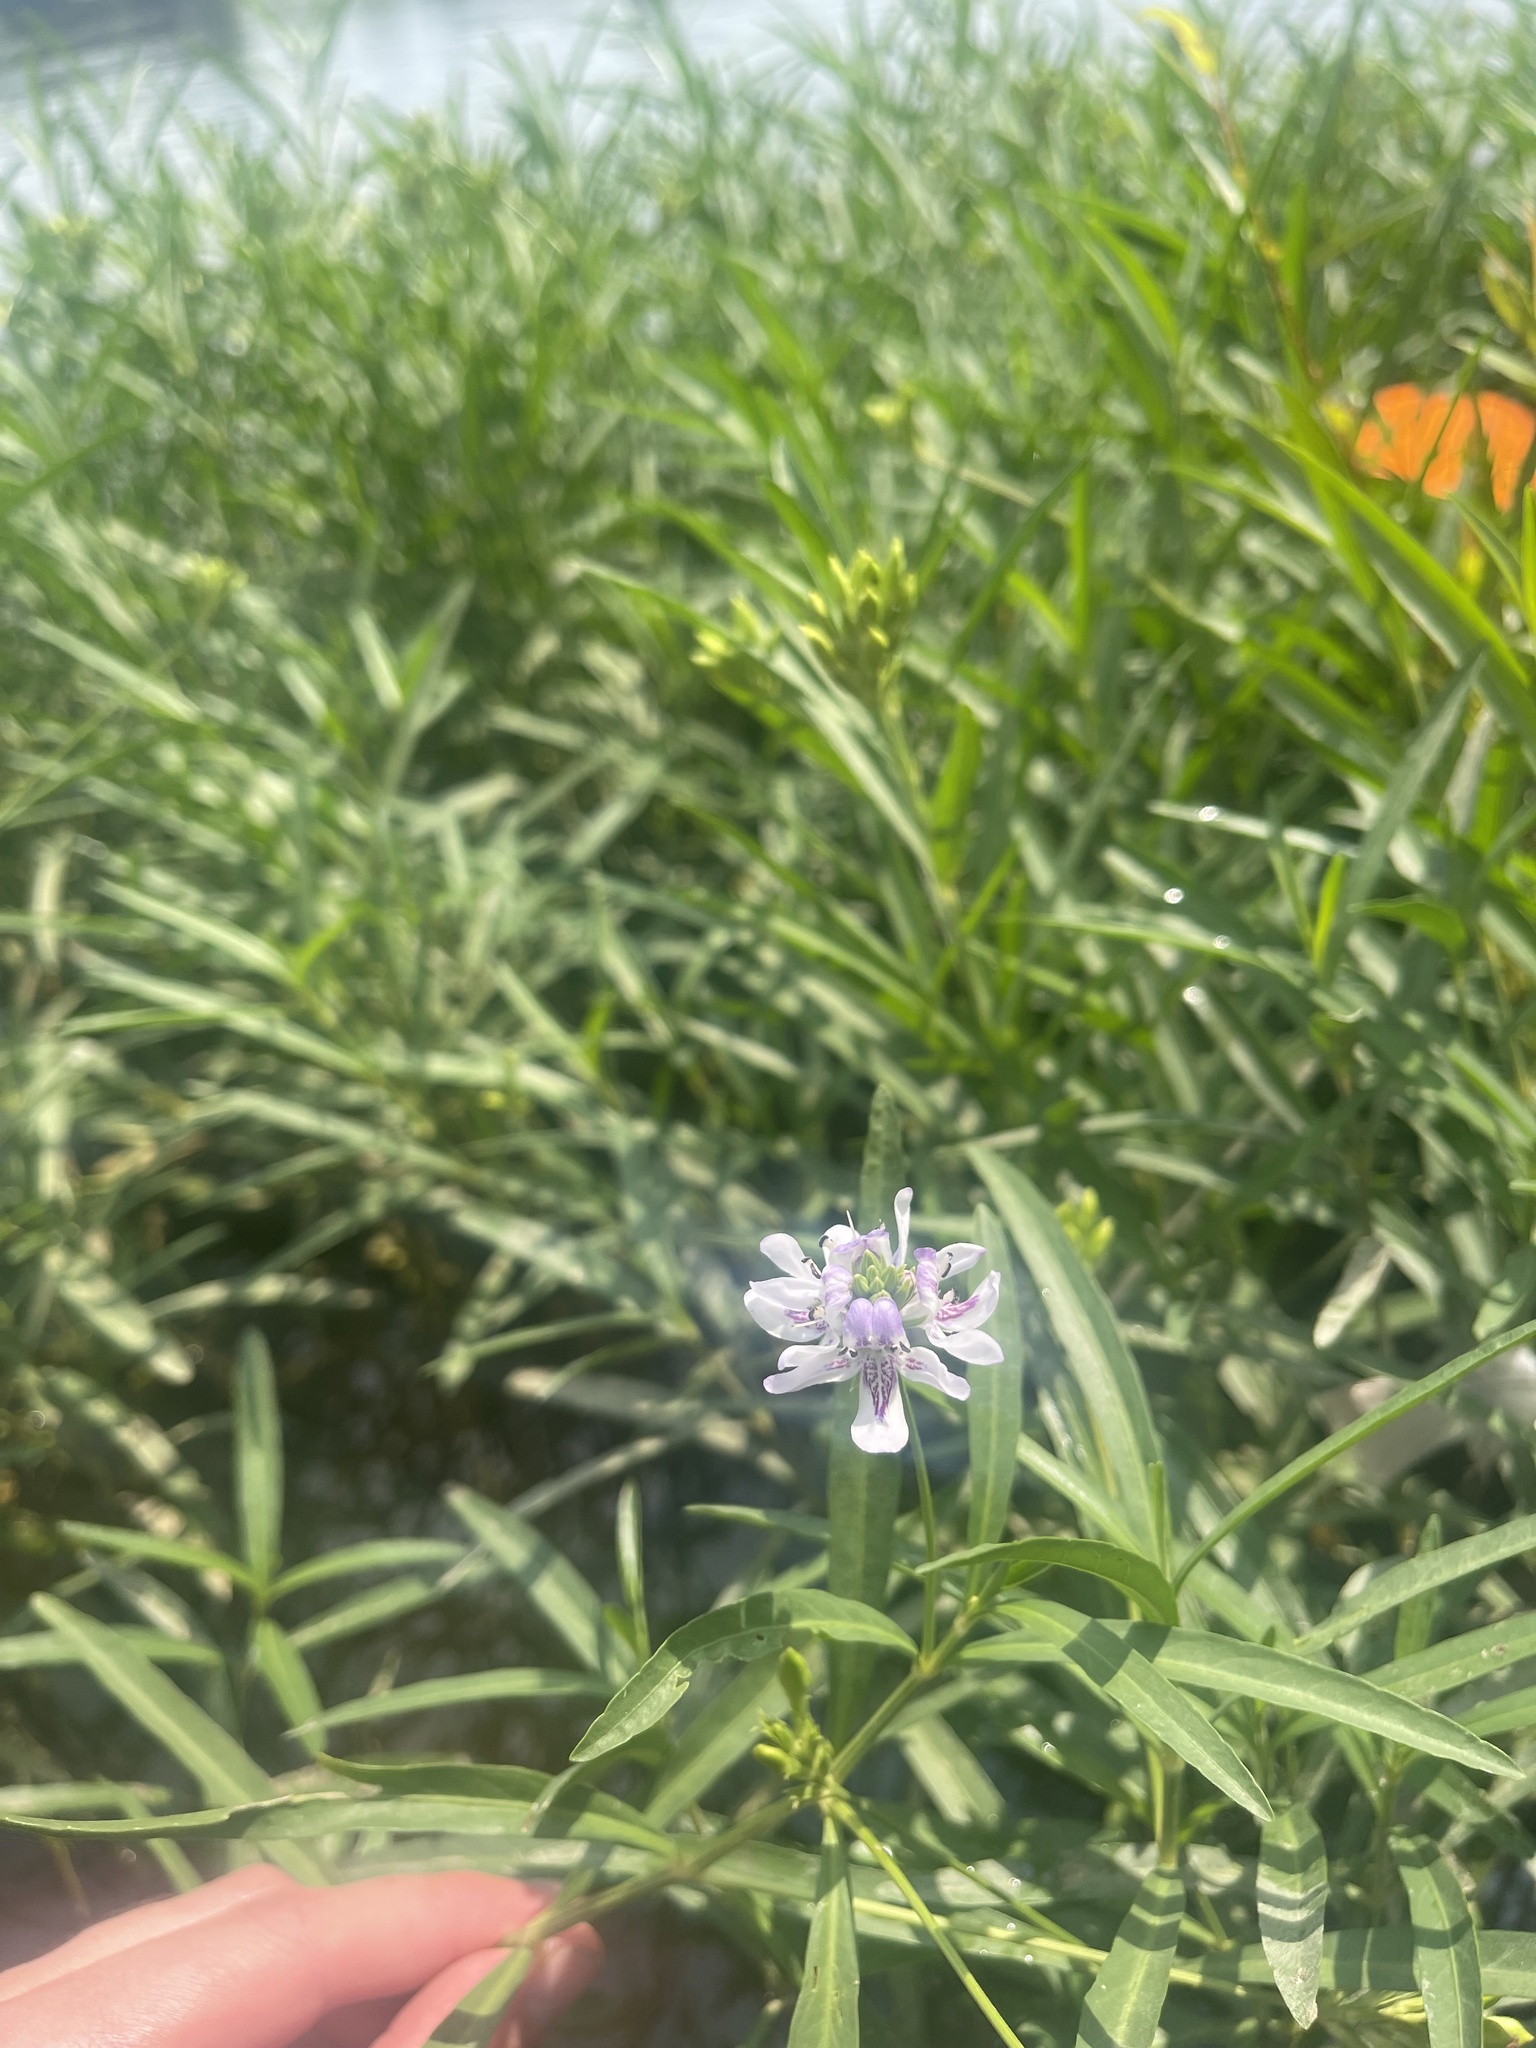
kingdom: Plantae
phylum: Tracheophyta
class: Magnoliopsida
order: Lamiales
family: Acanthaceae
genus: Dianthera
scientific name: Dianthera americana
